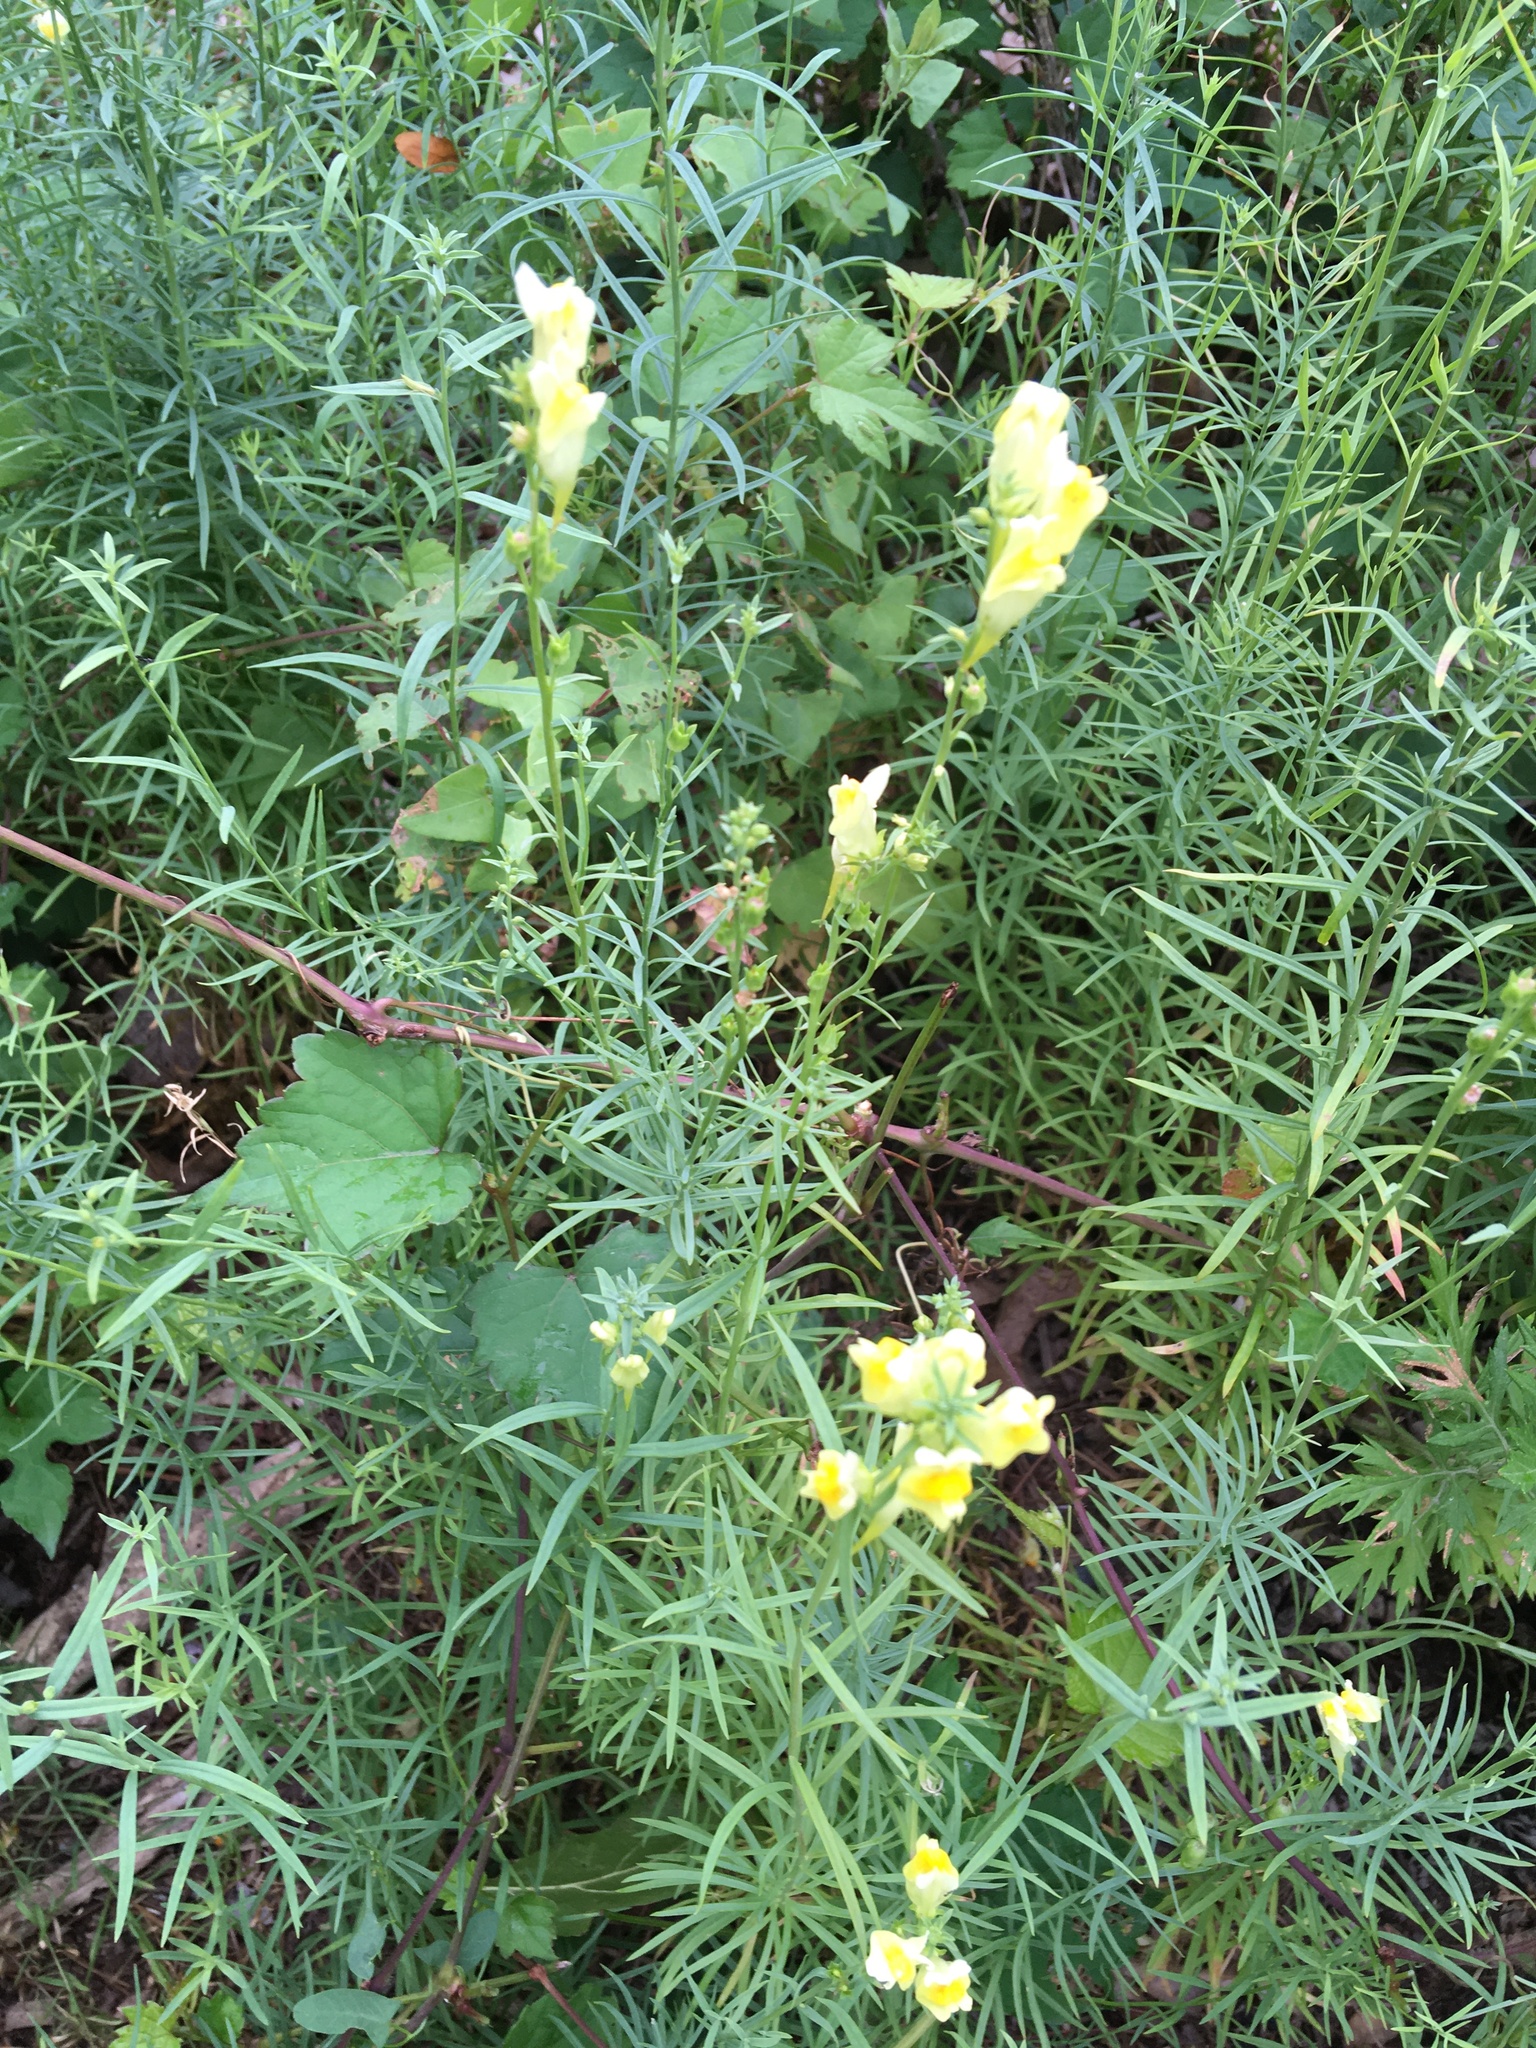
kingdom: Plantae
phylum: Tracheophyta
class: Magnoliopsida
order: Lamiales
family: Plantaginaceae
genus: Linaria
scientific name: Linaria vulgaris
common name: Butter and eggs
